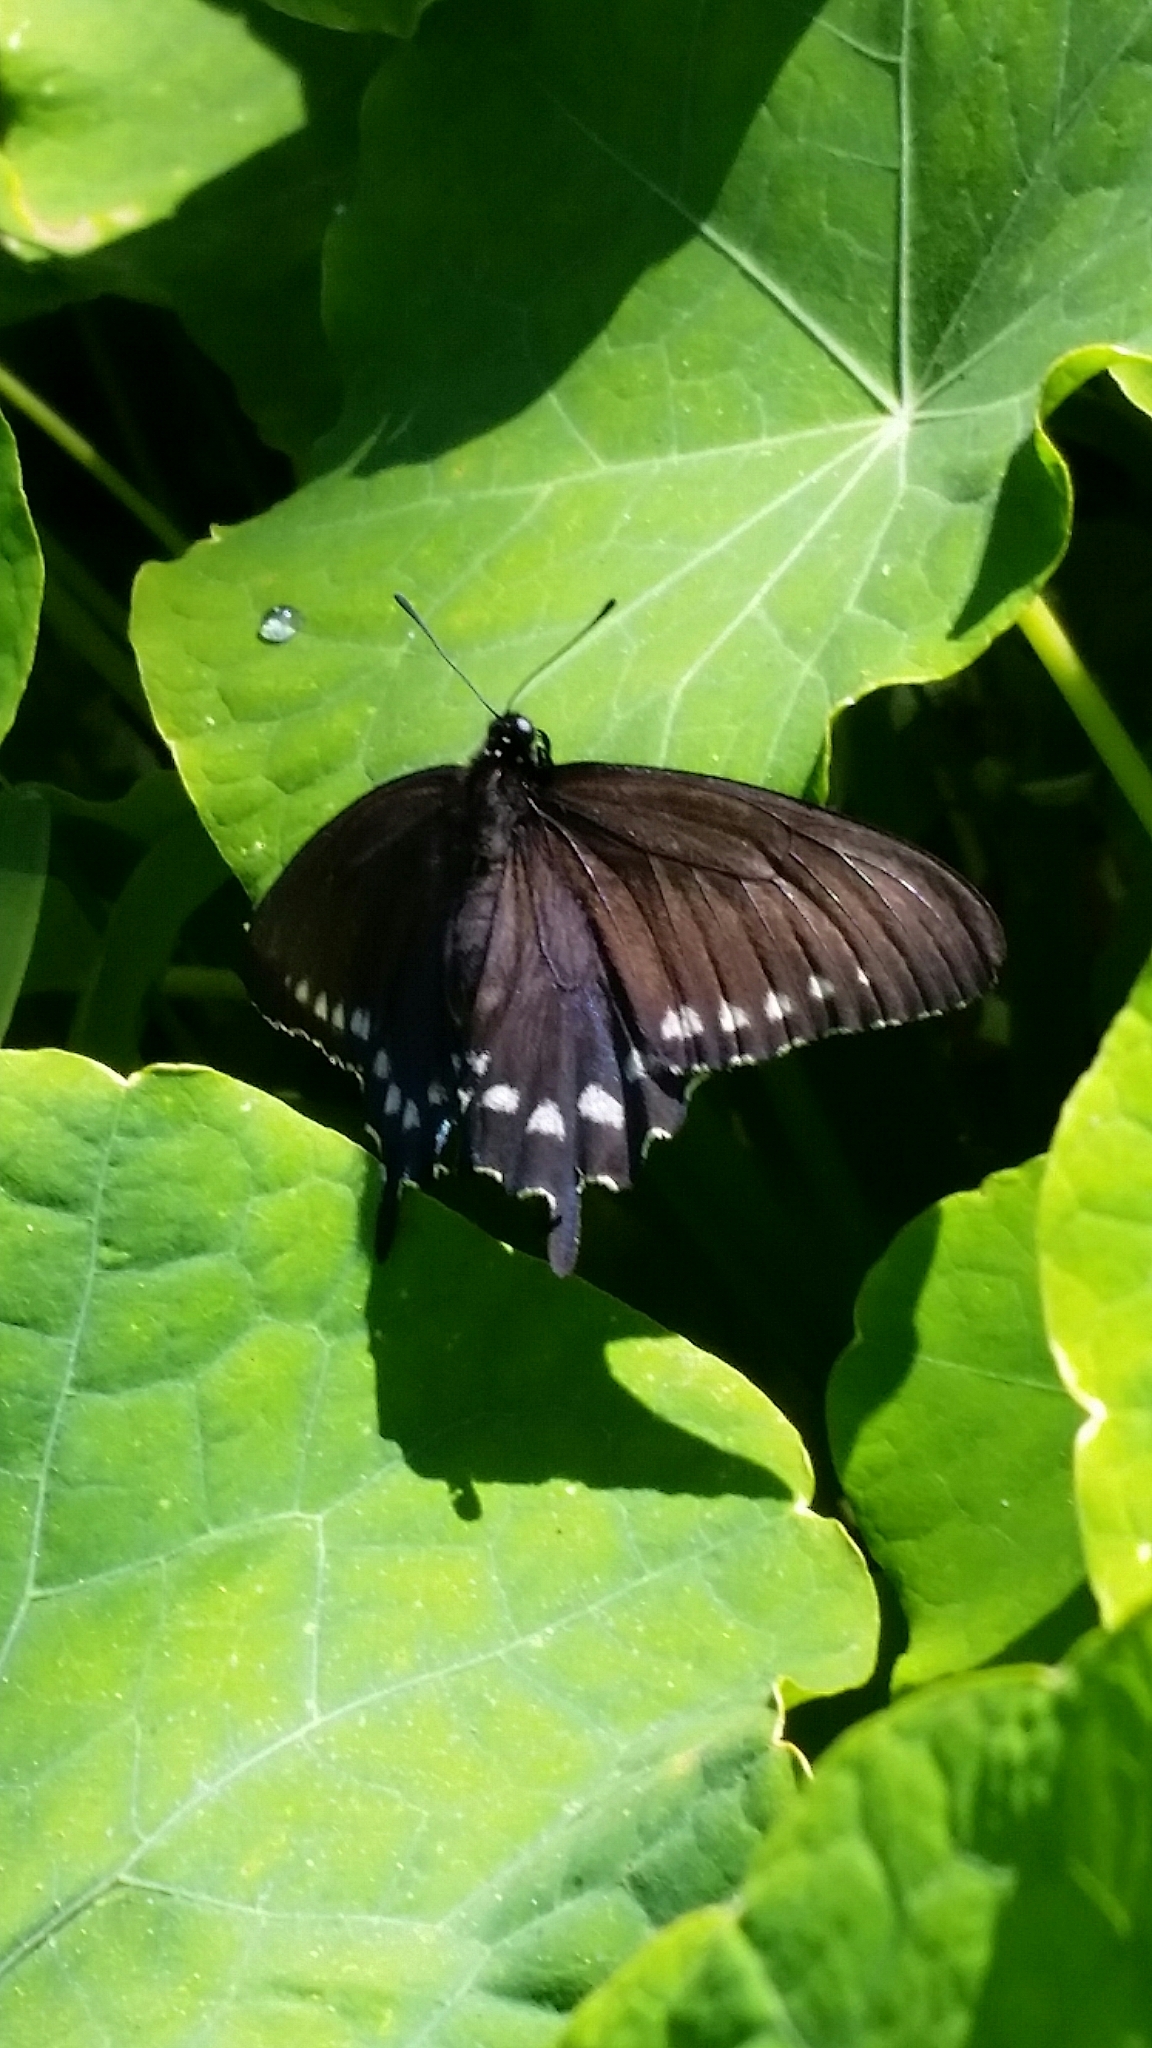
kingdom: Animalia
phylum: Arthropoda
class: Insecta
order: Lepidoptera
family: Papilionidae
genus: Battus
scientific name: Battus philenor
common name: Pipevine swallowtail
